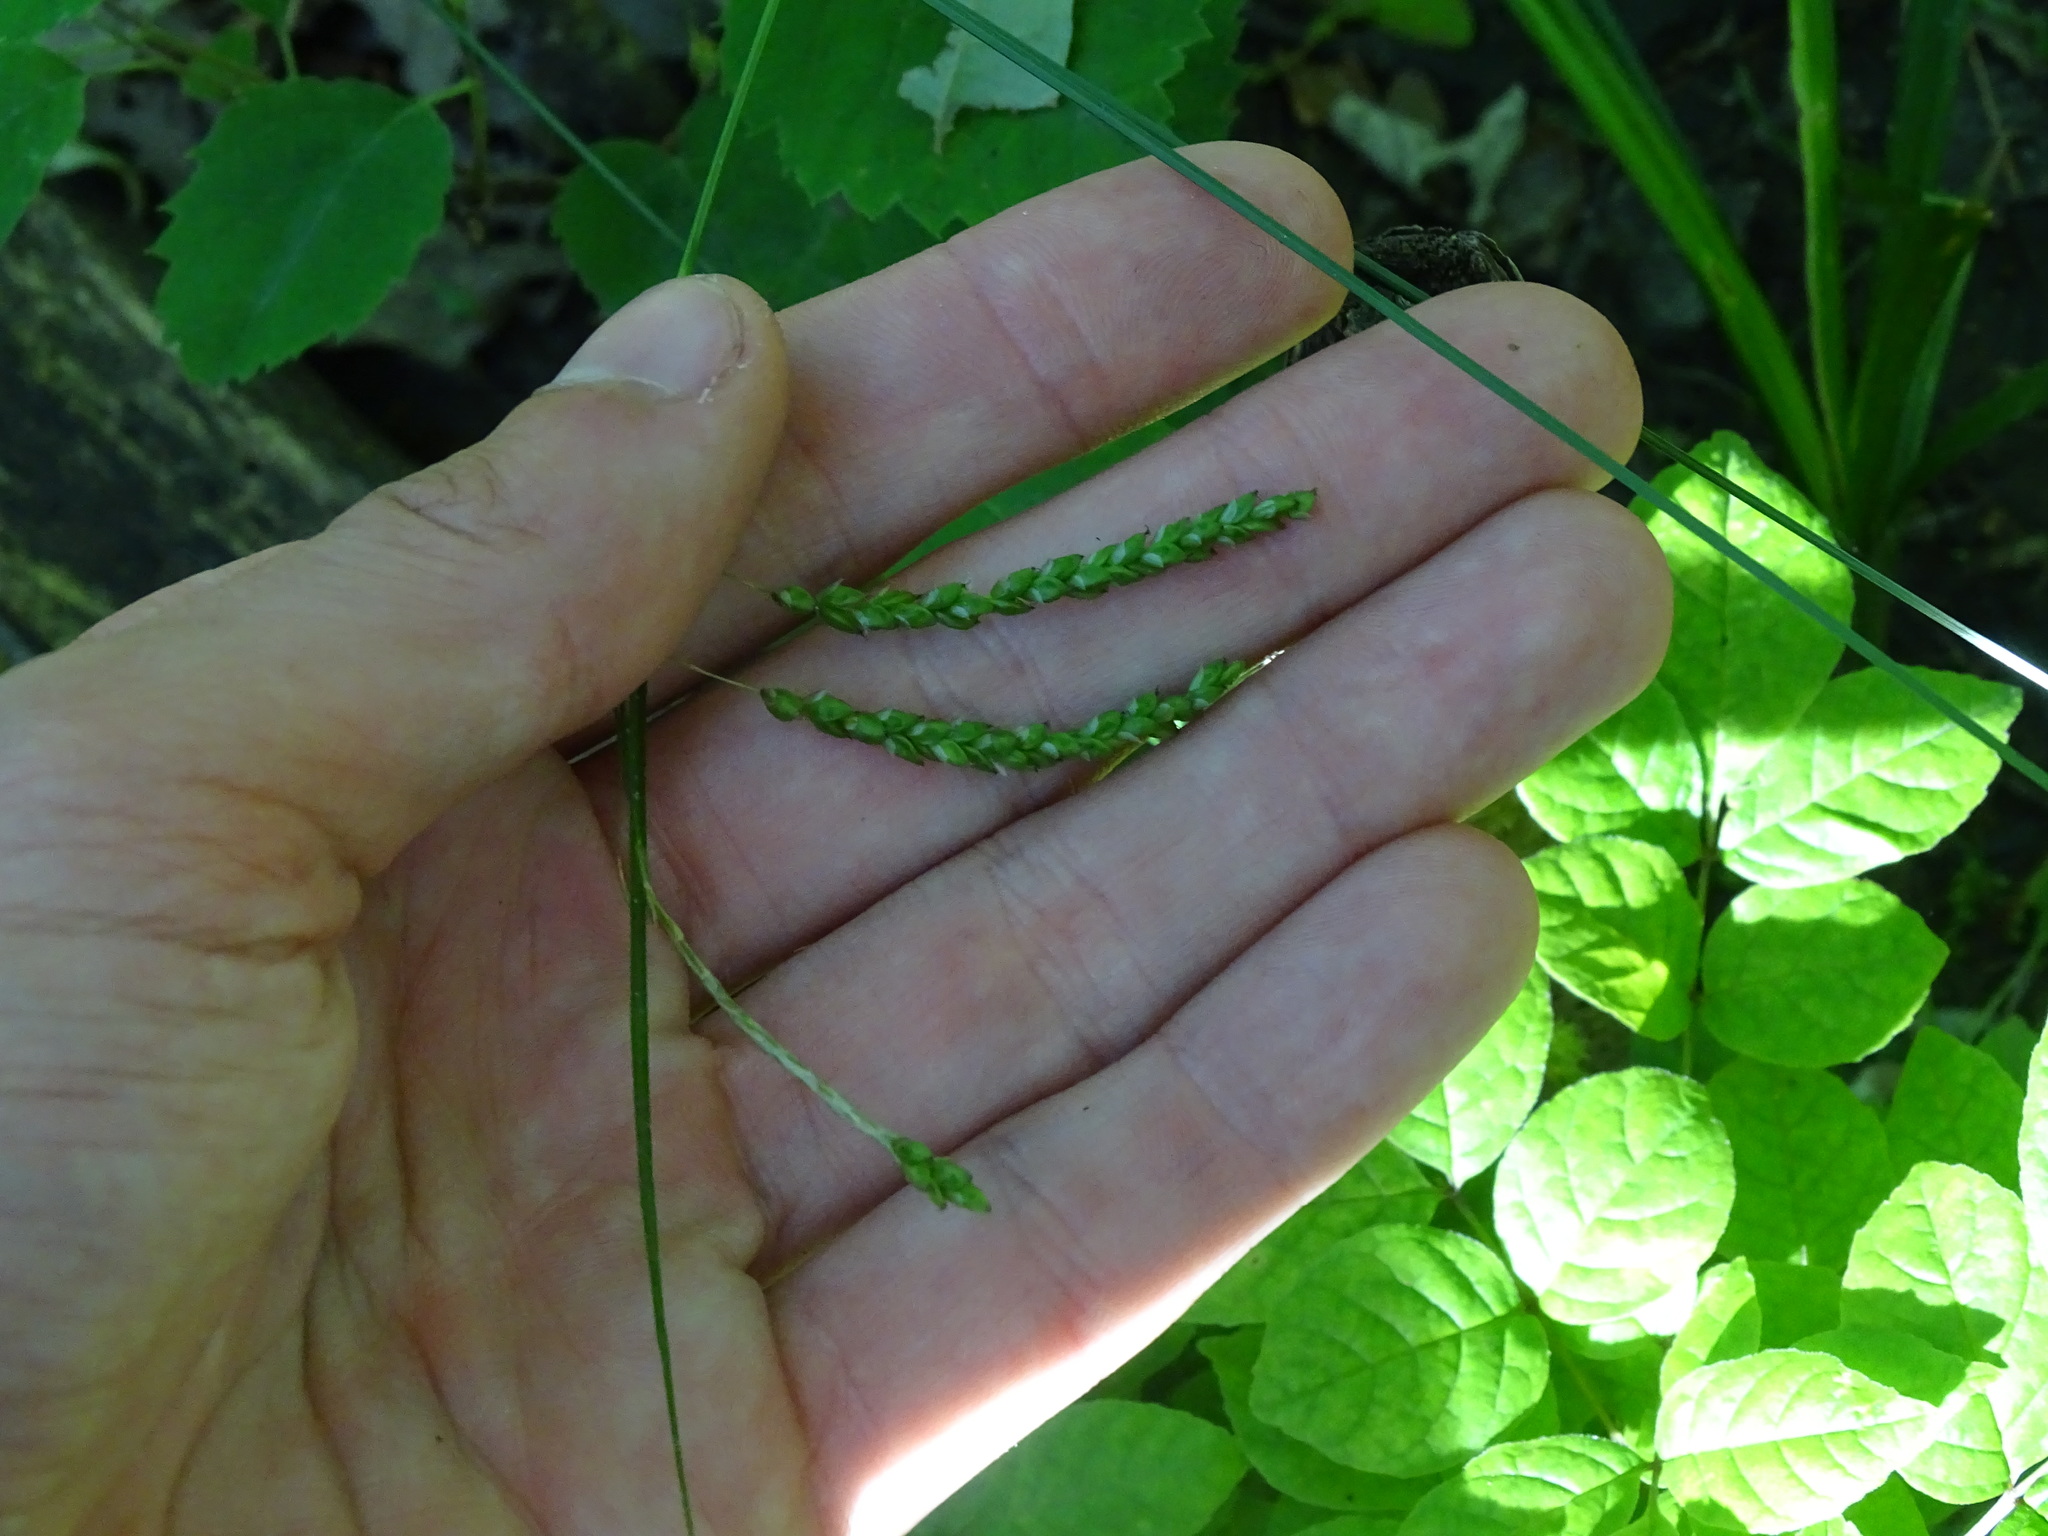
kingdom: Plantae
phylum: Tracheophyta
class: Liliopsida
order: Poales
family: Cyperaceae
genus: Carex
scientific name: Carex gracillima
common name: Graceful sedge
